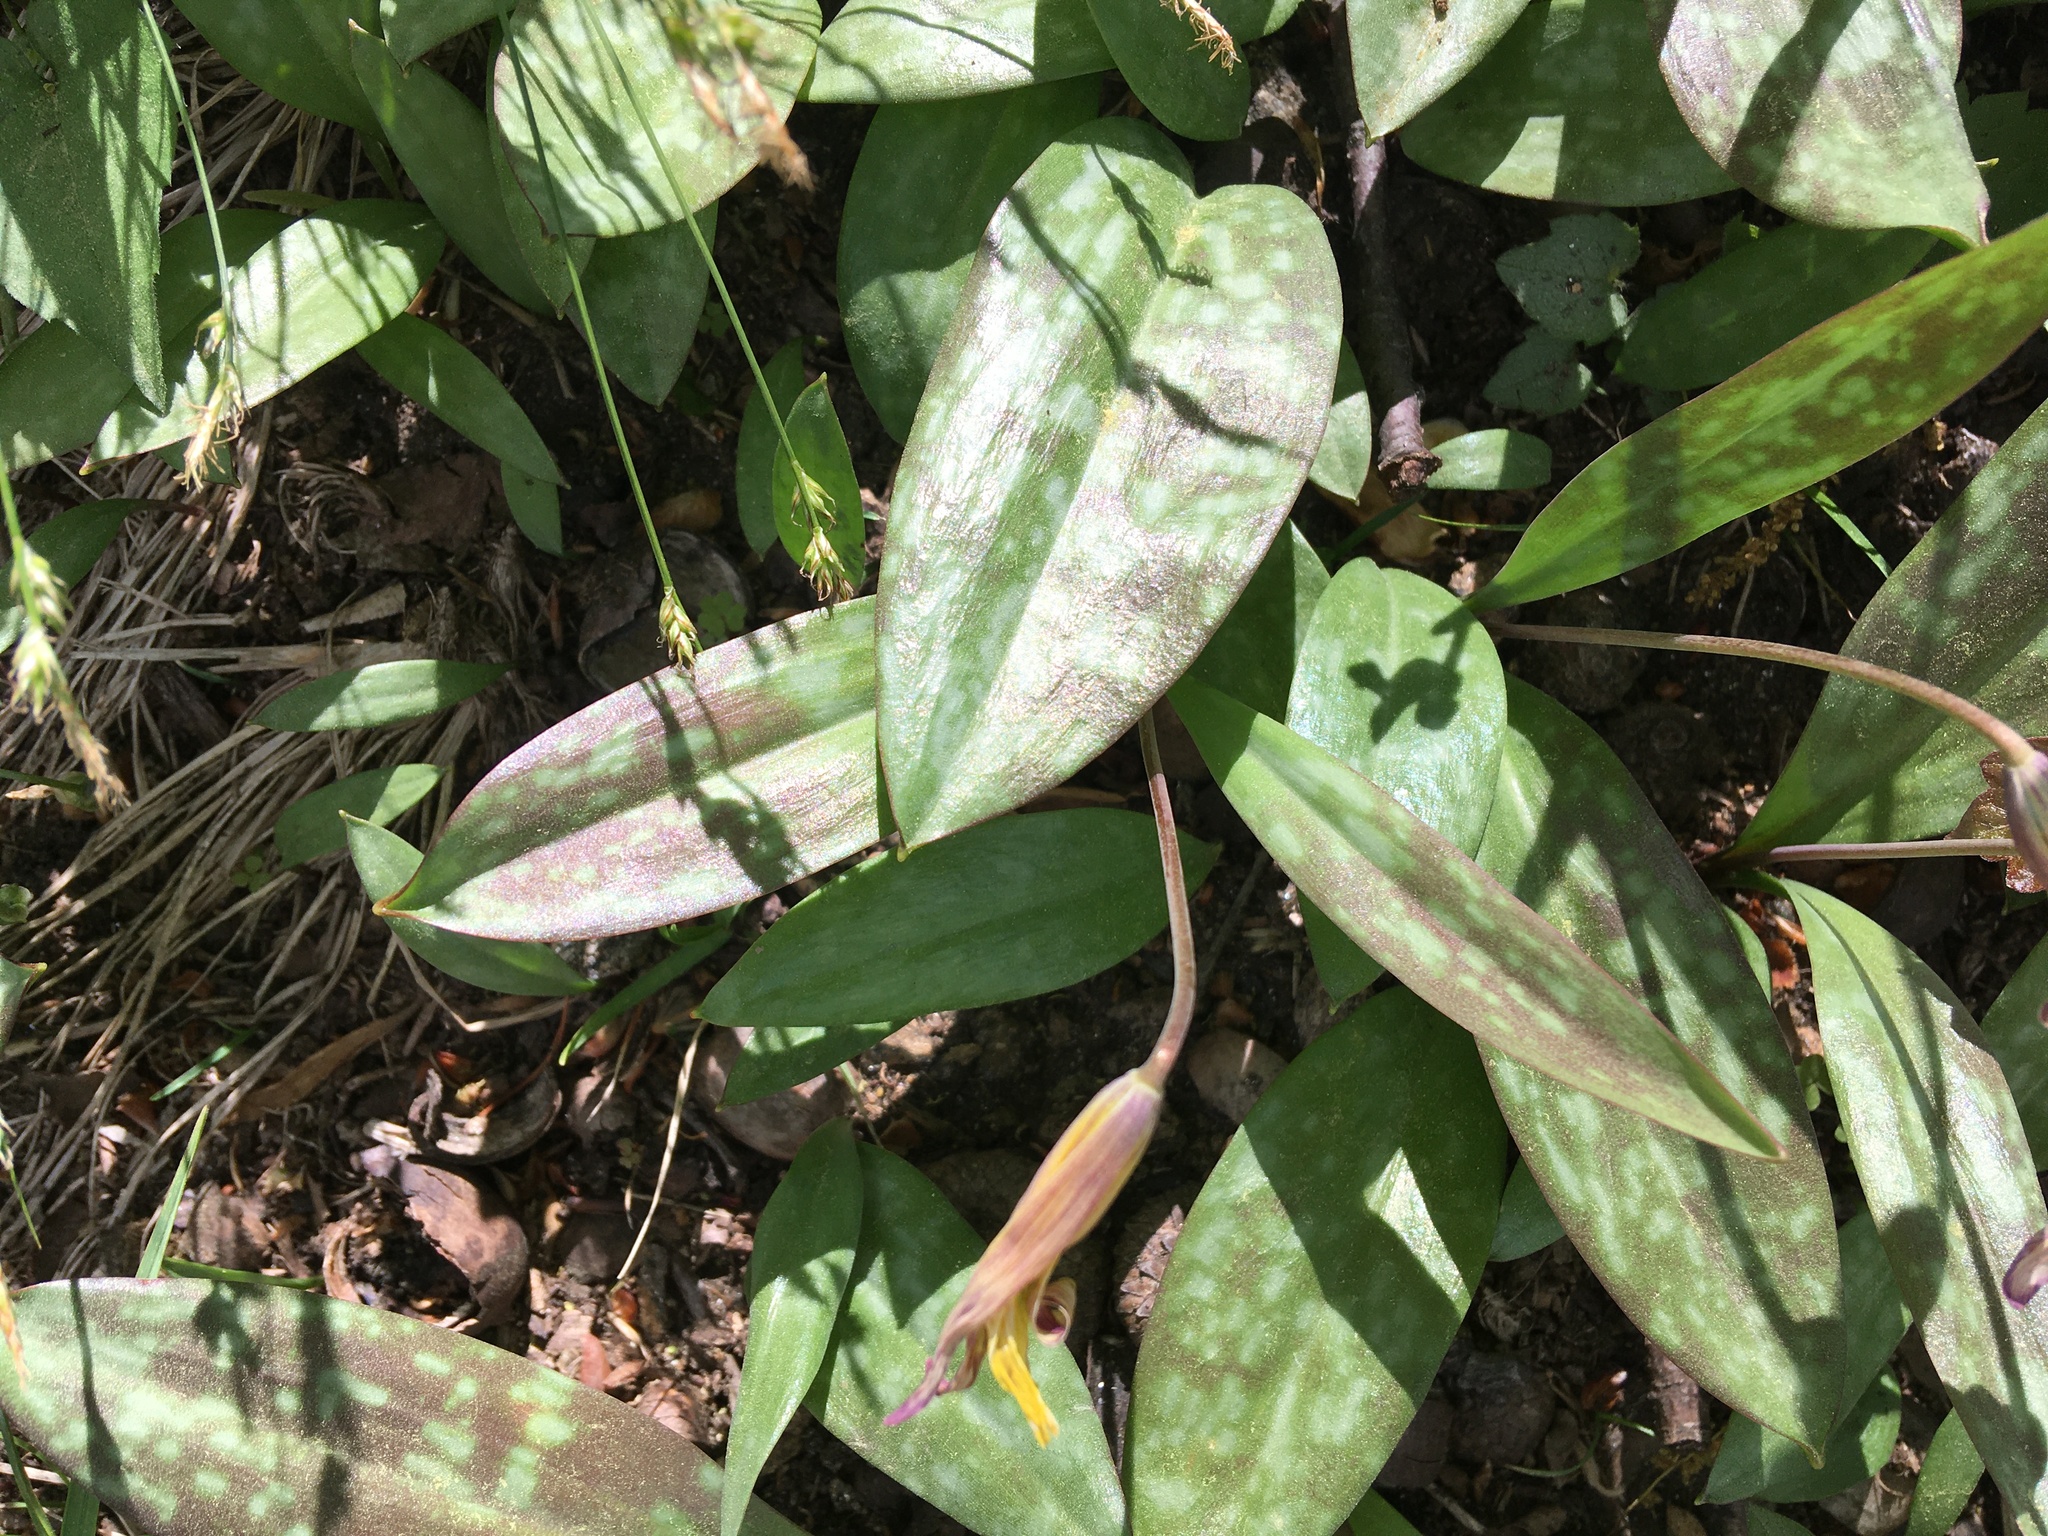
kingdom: Plantae
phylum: Tracheophyta
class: Liliopsida
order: Liliales
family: Liliaceae
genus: Erythronium
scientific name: Erythronium americanum
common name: Yellow adder's-tongue
